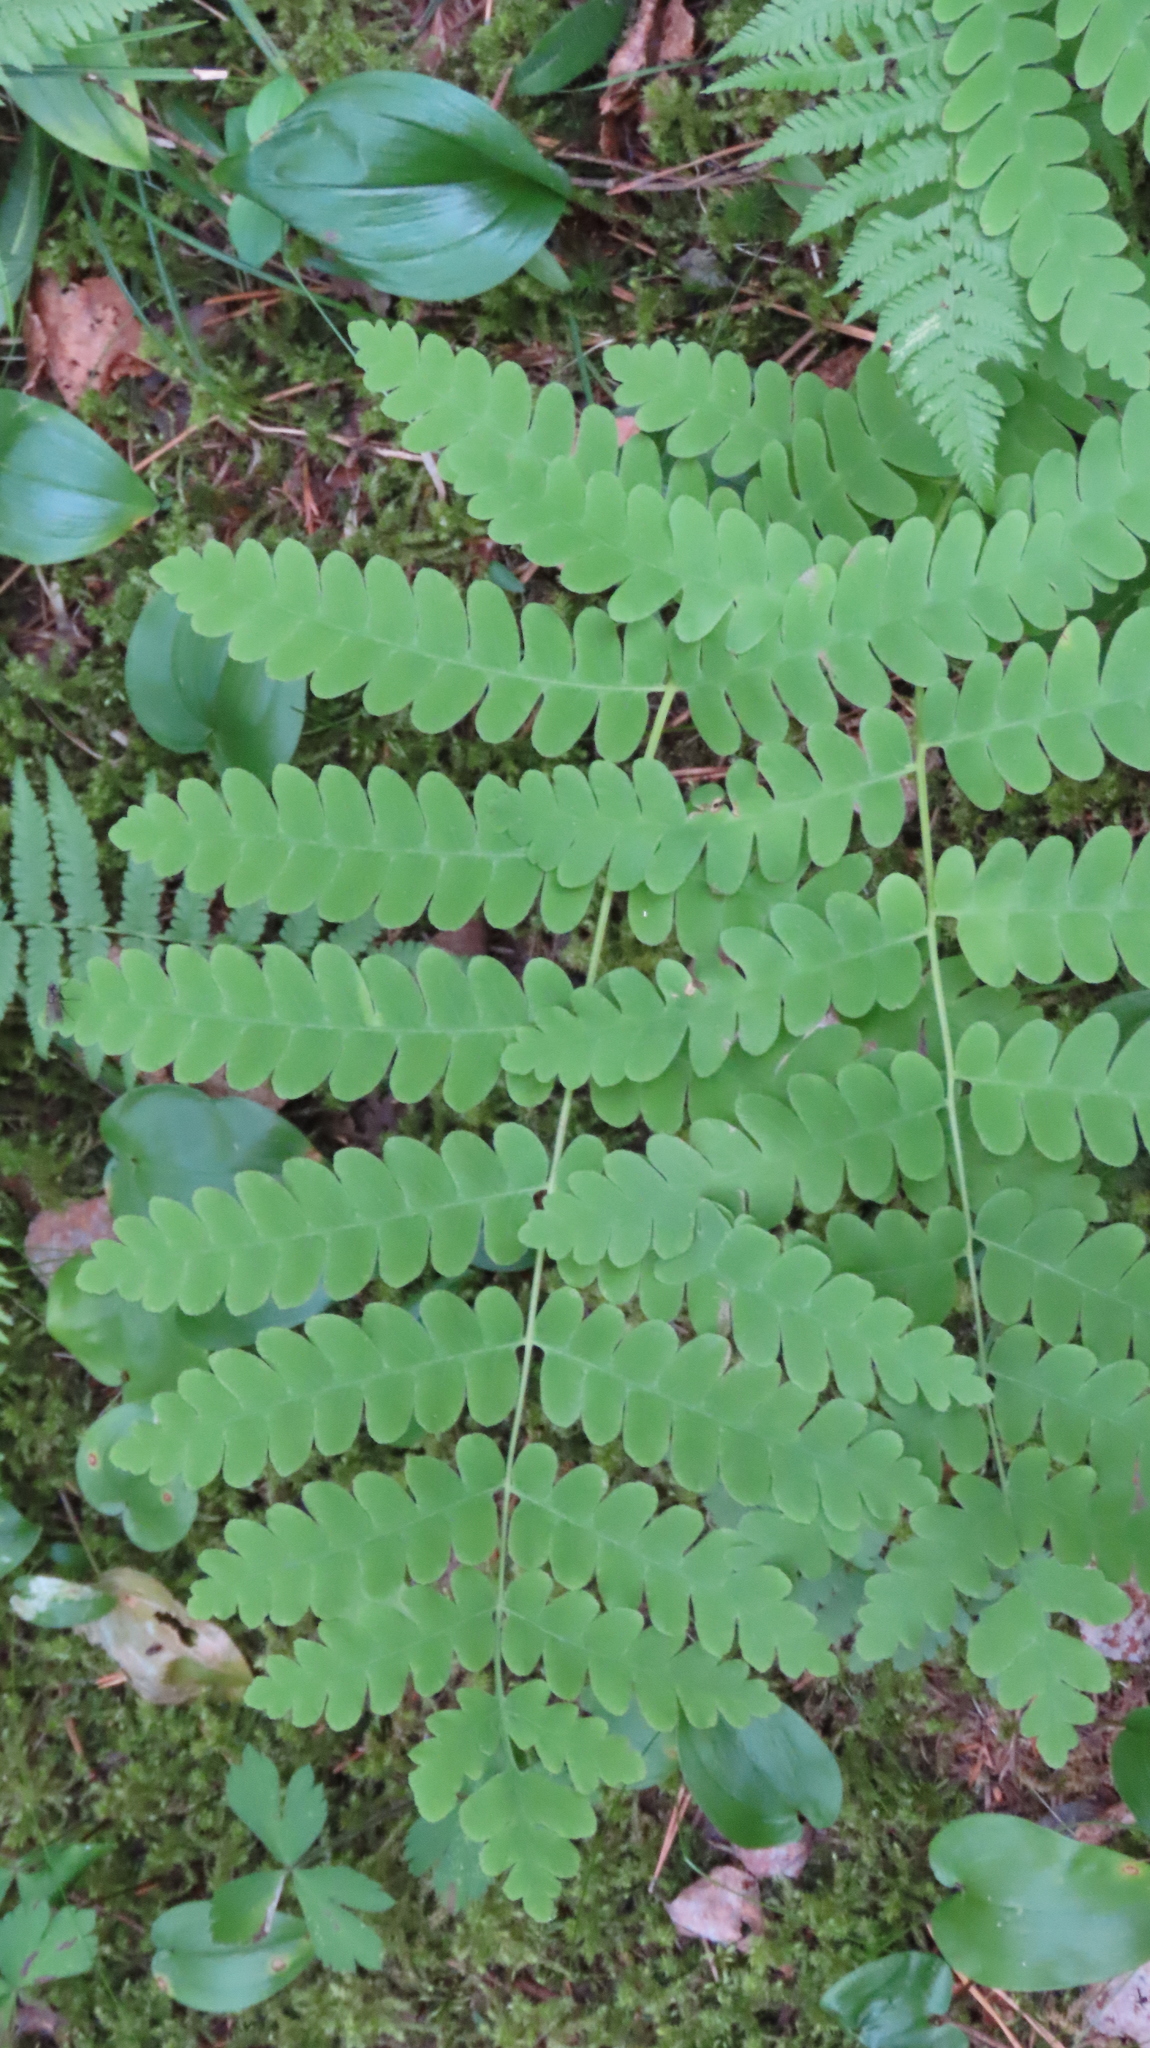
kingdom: Plantae
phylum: Tracheophyta
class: Polypodiopsida
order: Osmundales
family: Osmundaceae
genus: Claytosmunda
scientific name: Claytosmunda claytoniana
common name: Clayton's fern
